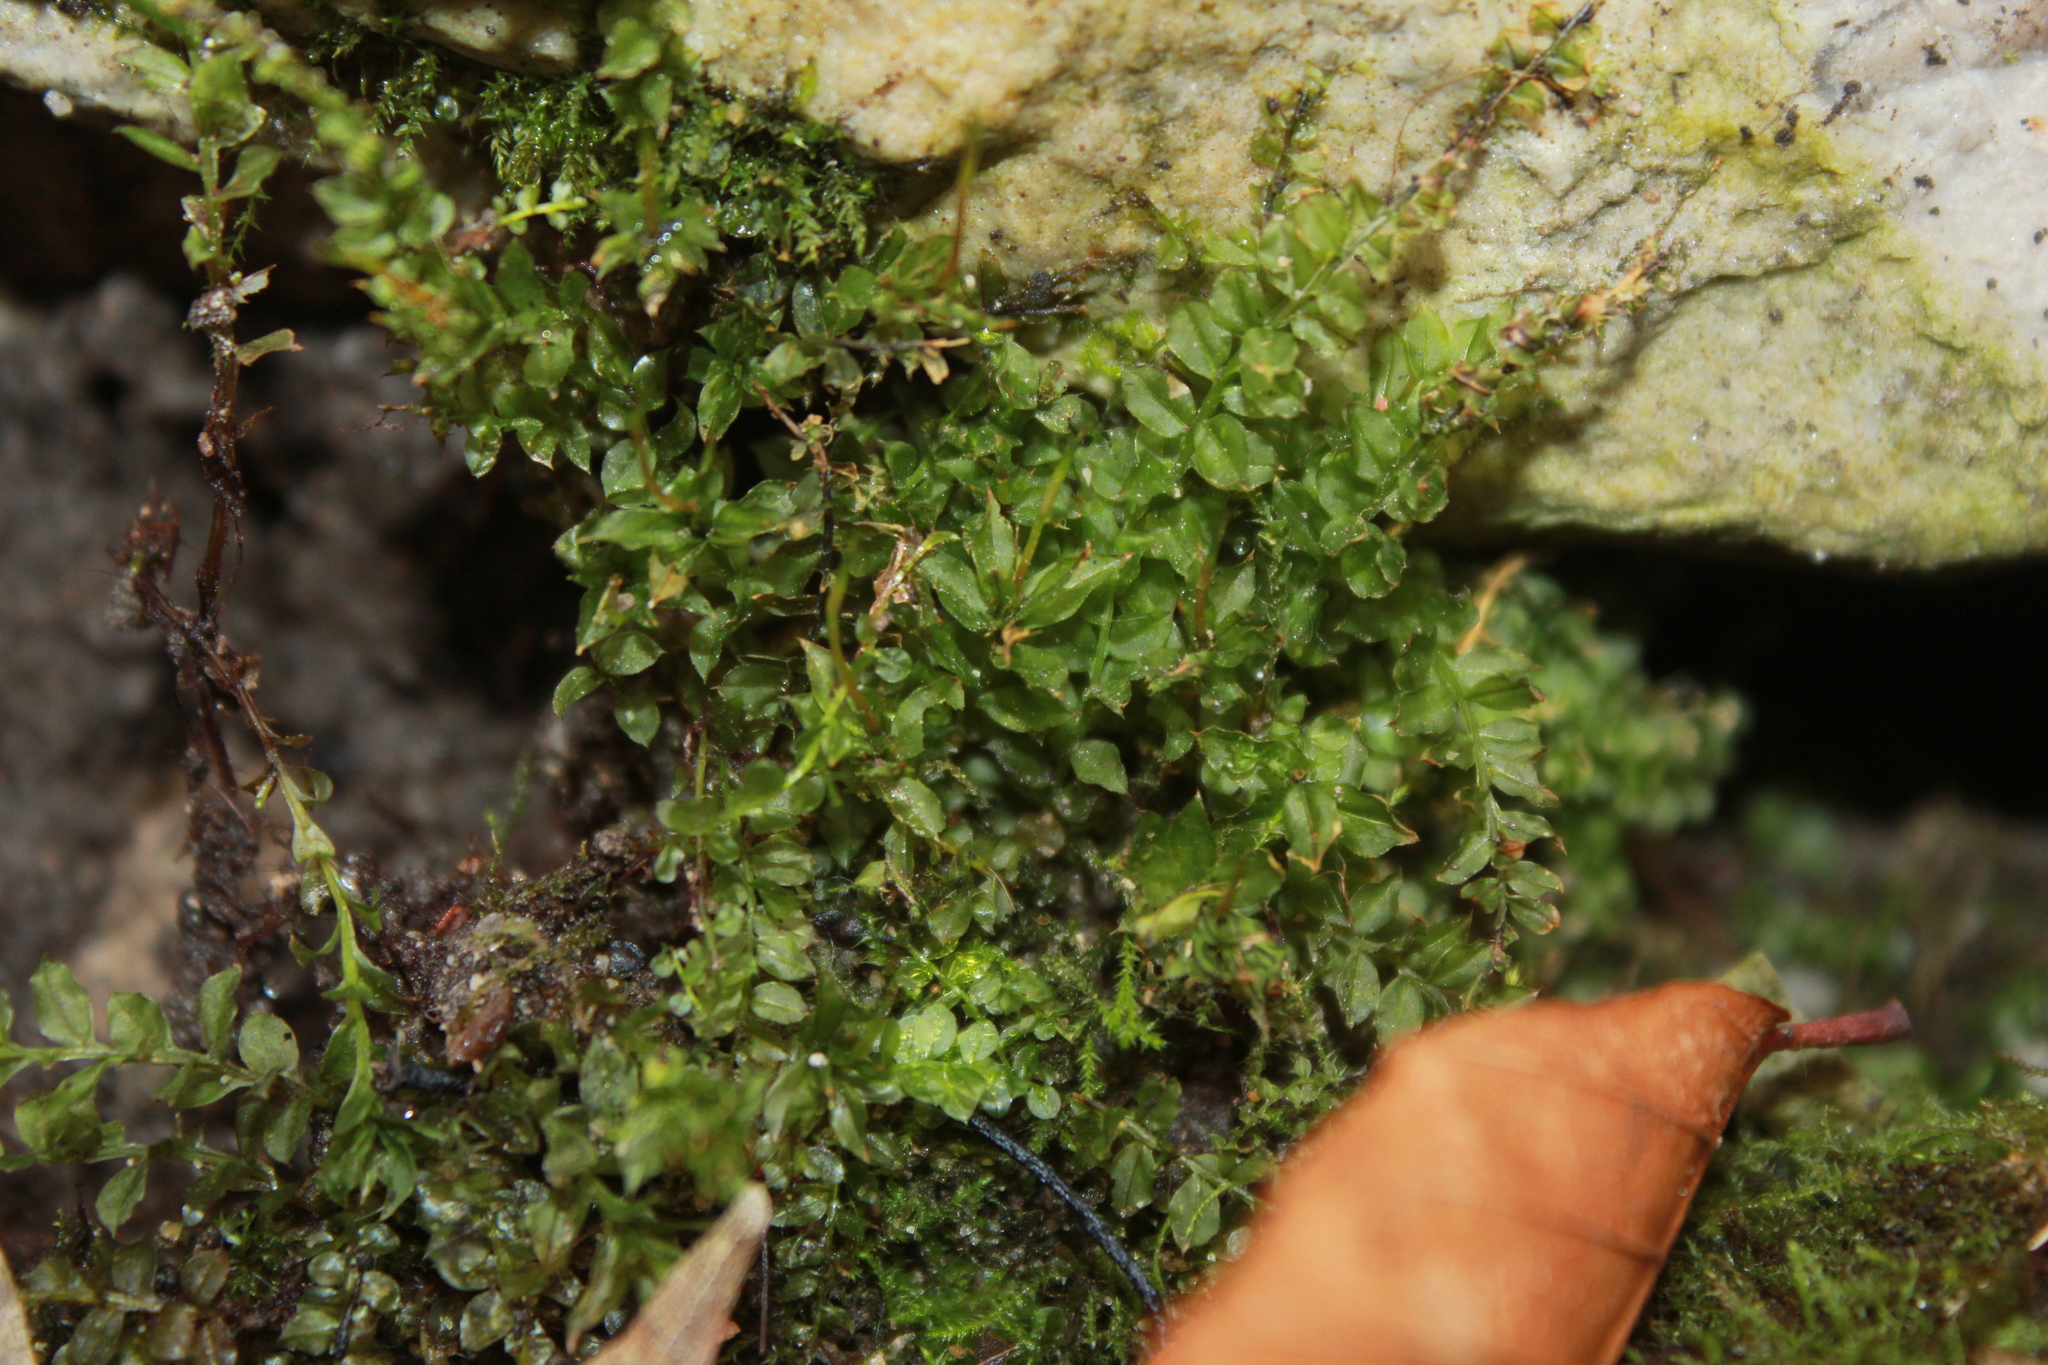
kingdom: Plantae
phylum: Bryophyta
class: Bryopsida
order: Bryales
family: Mniaceae
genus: Plagiomnium
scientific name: Plagiomnium cuspidatum
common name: Woodsy leafy moss
